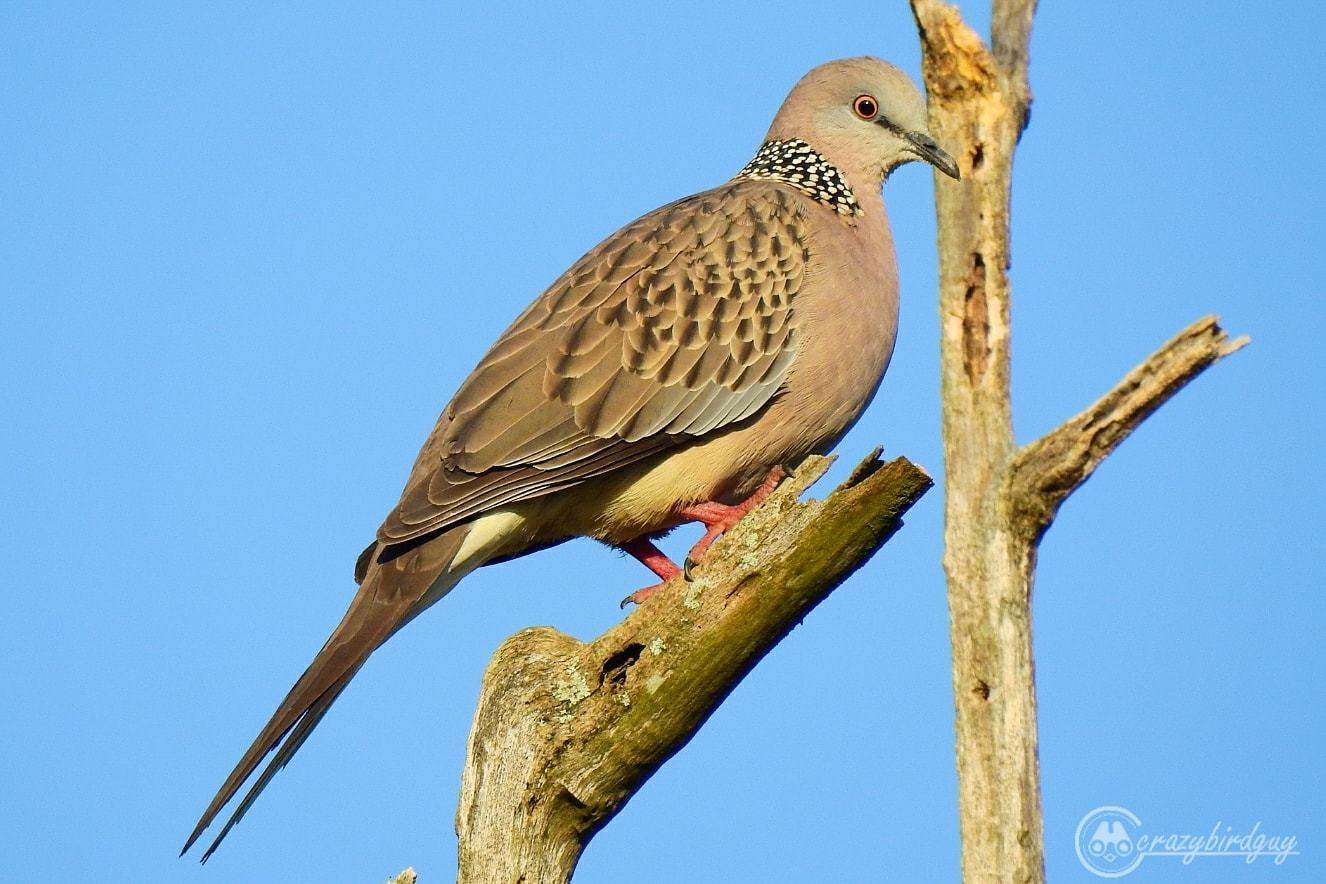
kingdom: Animalia
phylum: Chordata
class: Aves
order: Columbiformes
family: Columbidae
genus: Spilopelia
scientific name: Spilopelia chinensis
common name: Spotted dove
